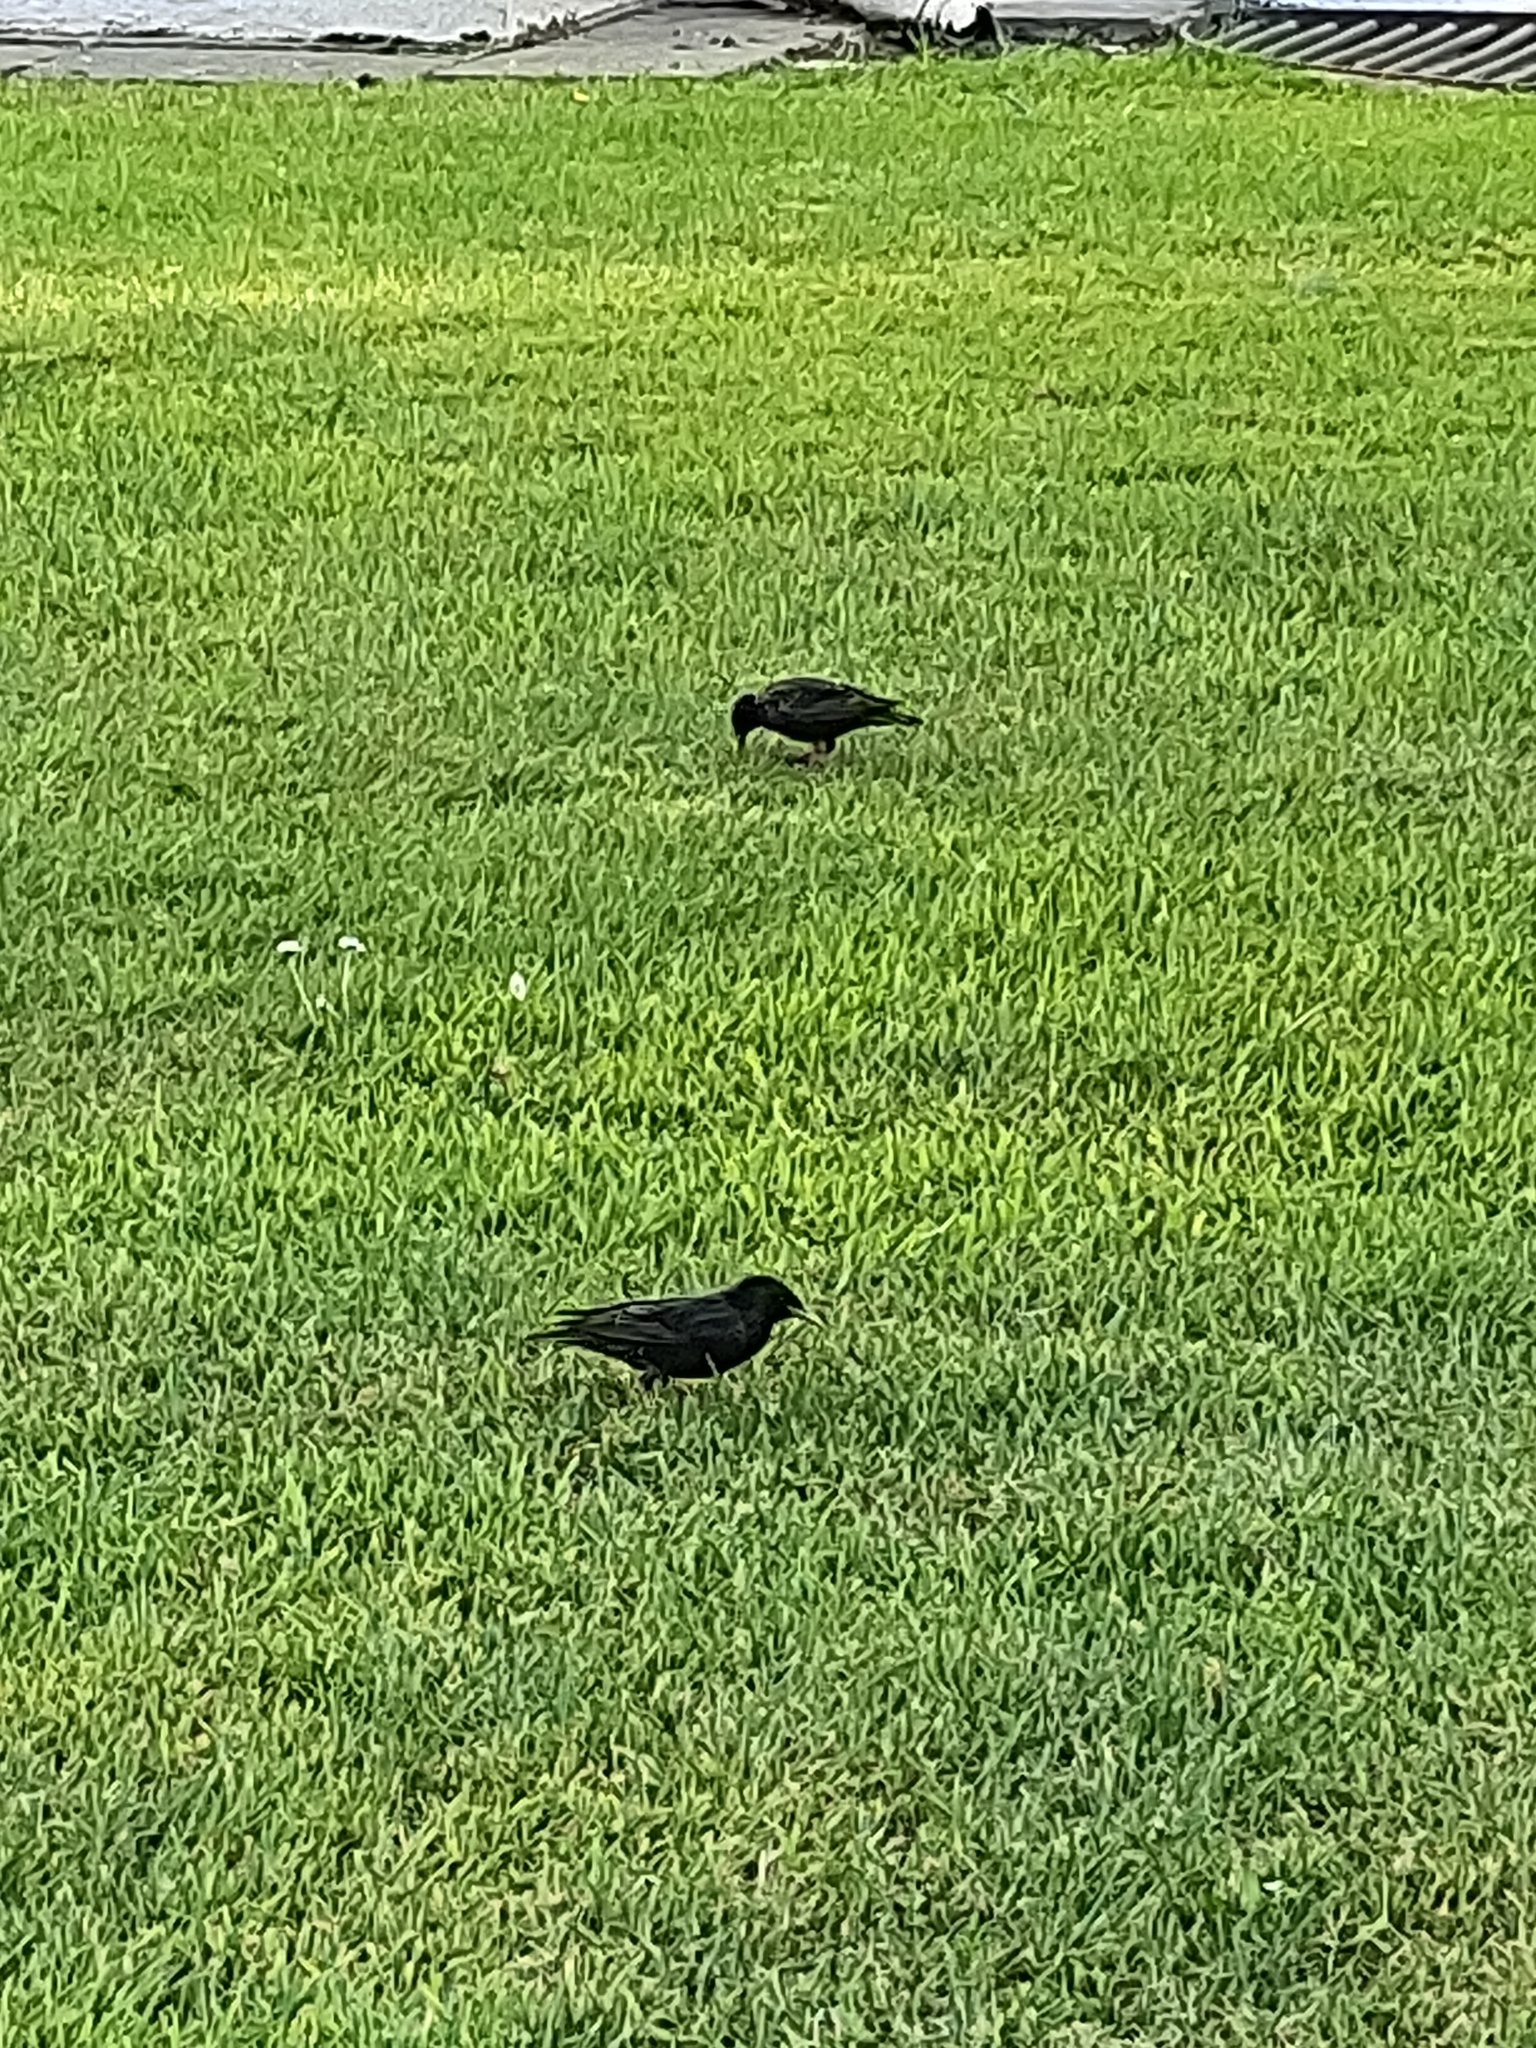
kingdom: Animalia
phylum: Chordata
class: Aves
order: Passeriformes
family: Sturnidae
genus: Sturnus
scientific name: Sturnus vulgaris
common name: Common starling
